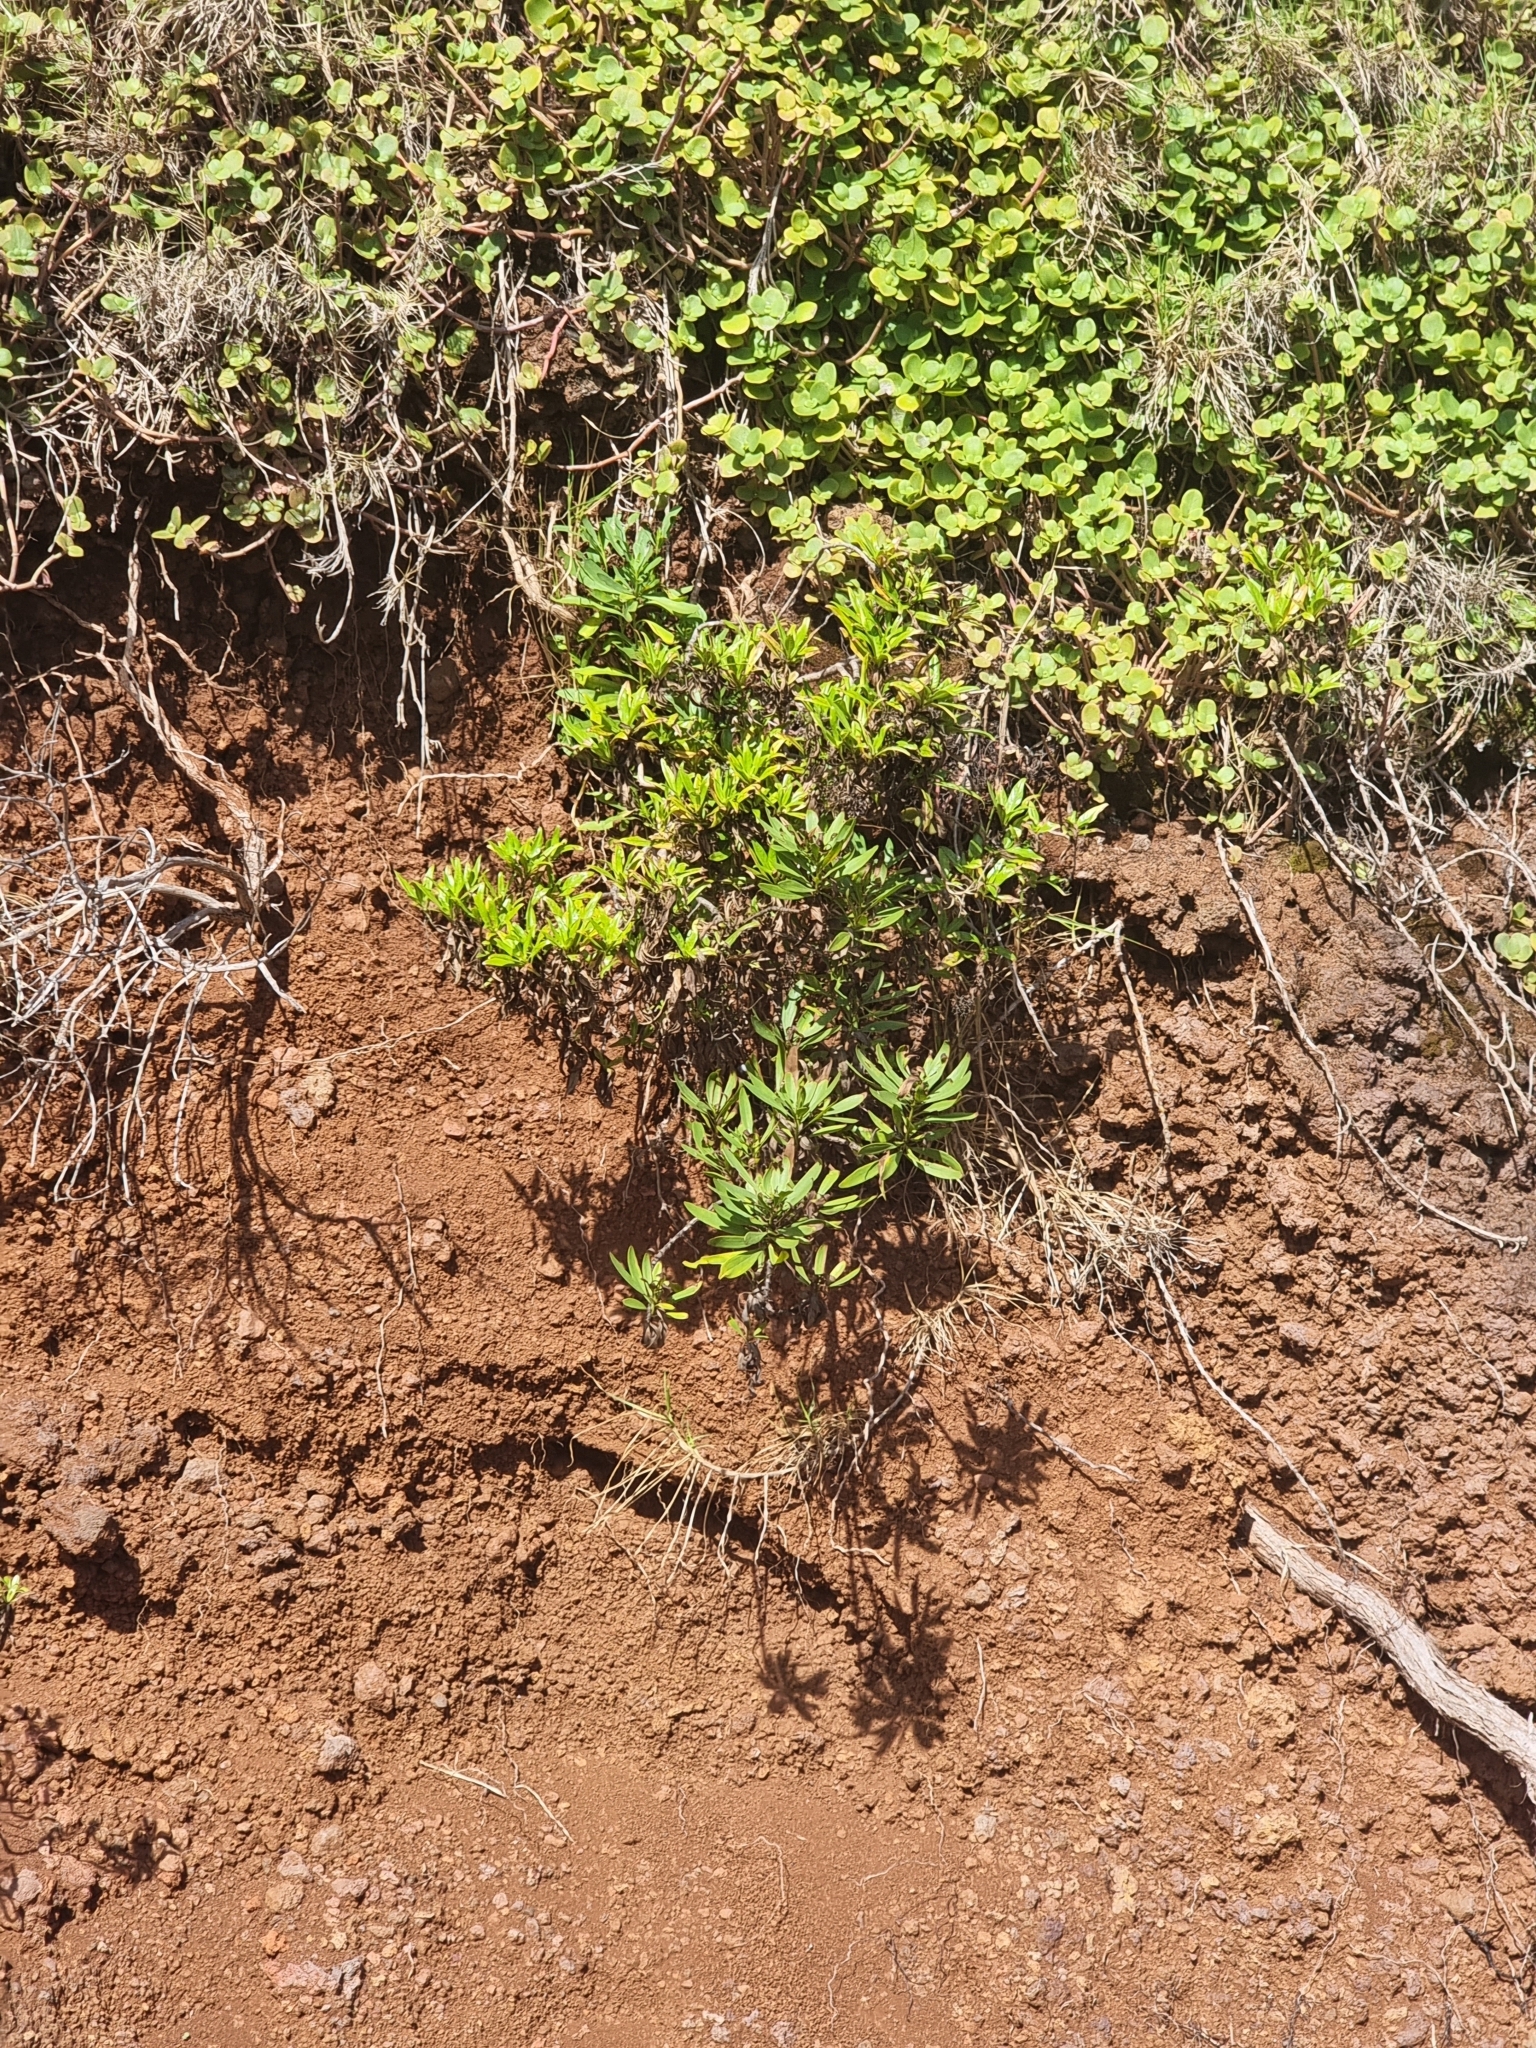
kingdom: Plantae
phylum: Tracheophyta
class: Magnoliopsida
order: Lamiales
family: Plantaginaceae
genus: Globularia
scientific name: Globularia salicina
